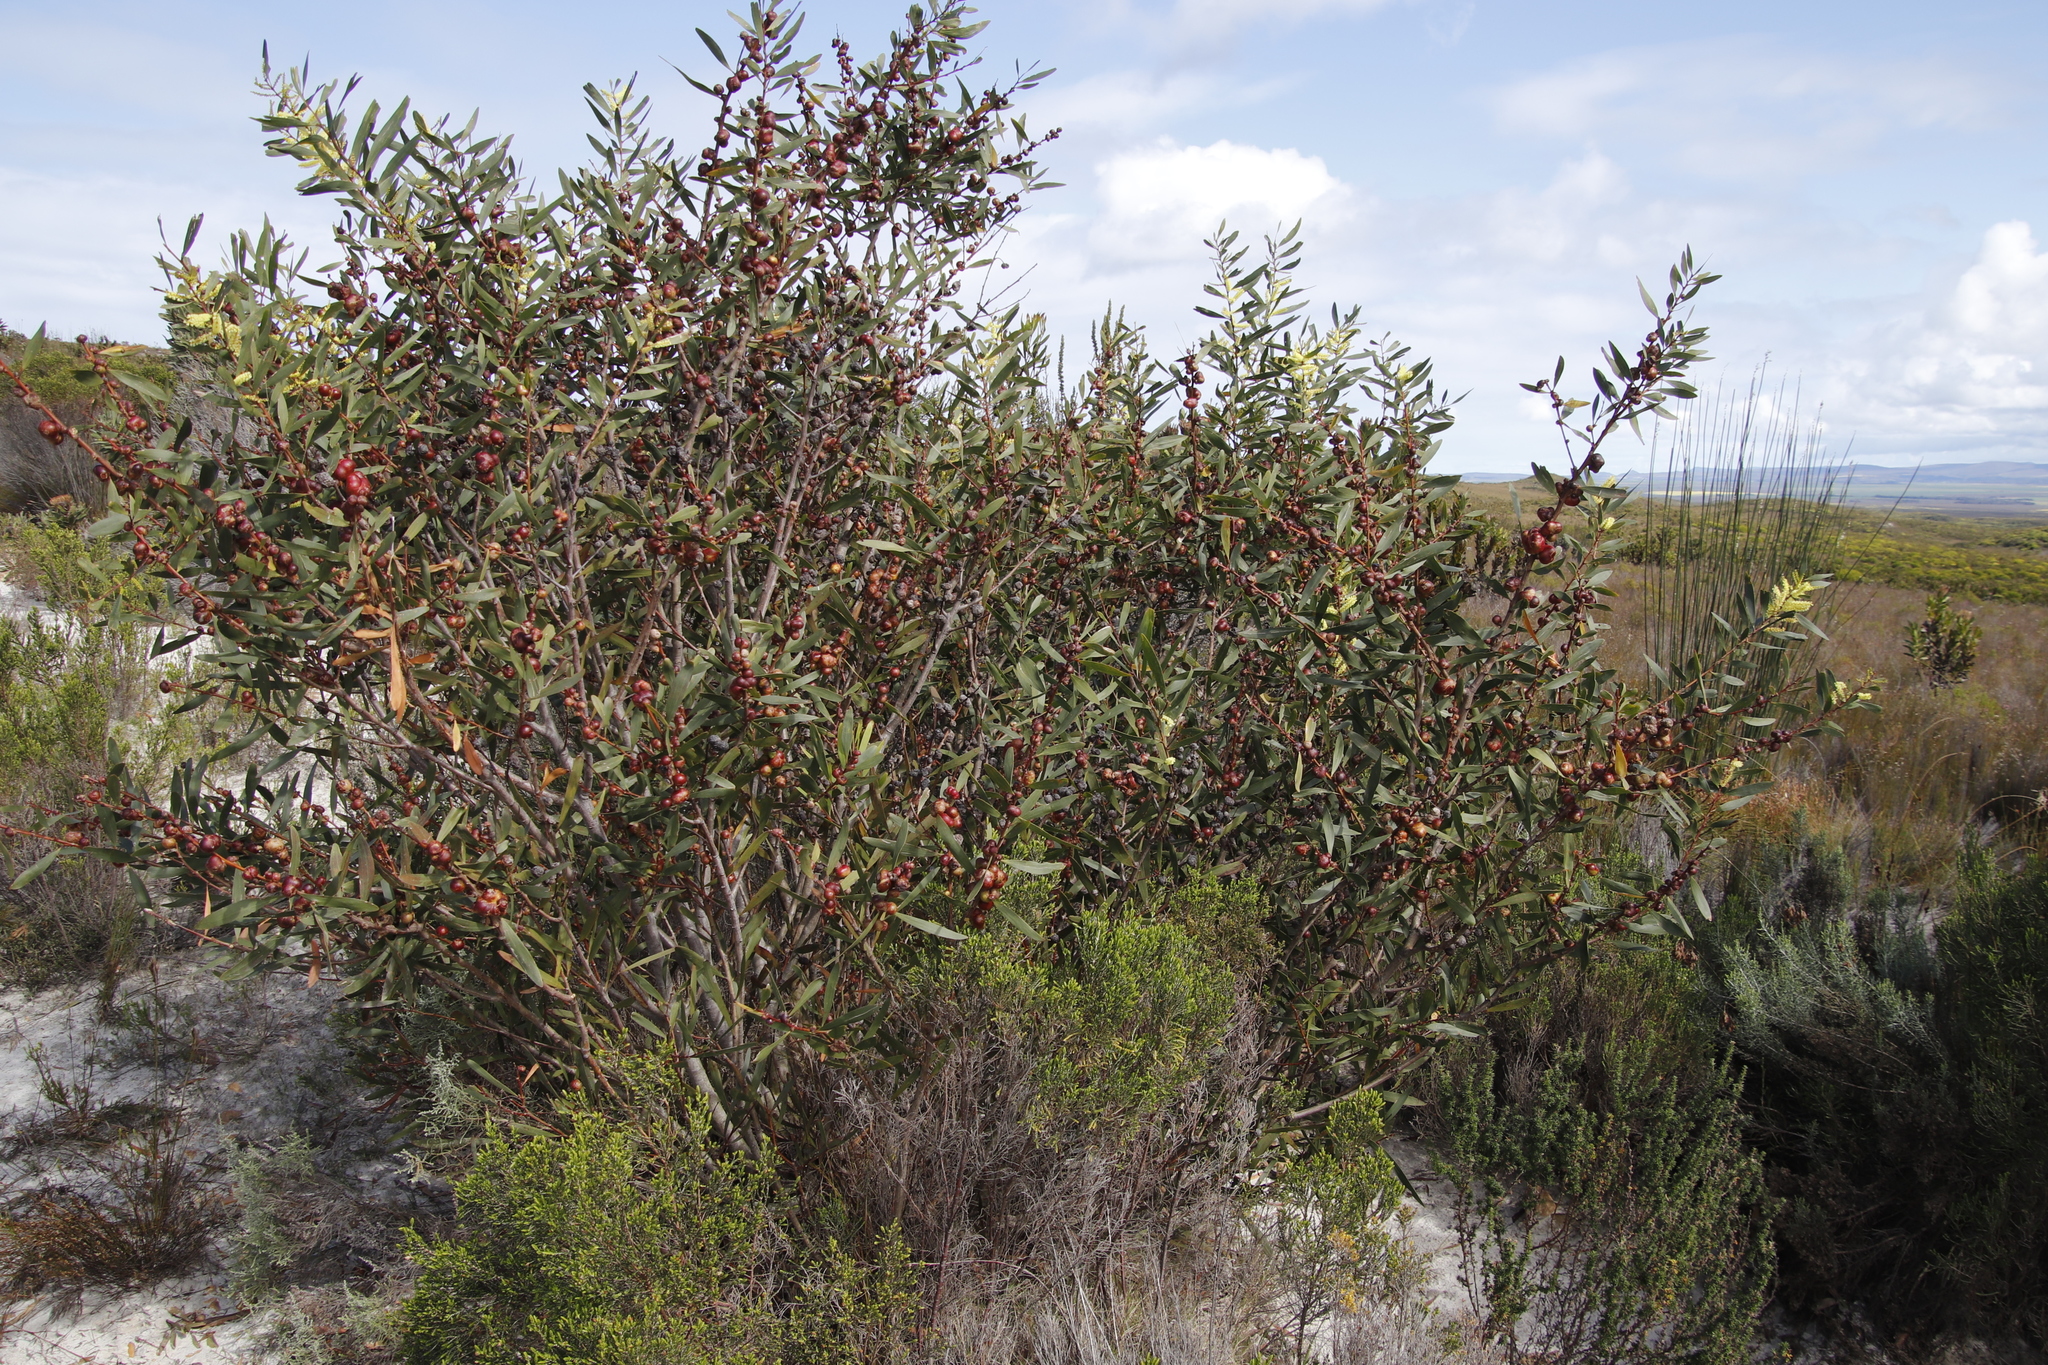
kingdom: Plantae
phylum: Tracheophyta
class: Magnoliopsida
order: Fabales
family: Fabaceae
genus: Acacia
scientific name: Acacia longifolia
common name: Sydney golden wattle
